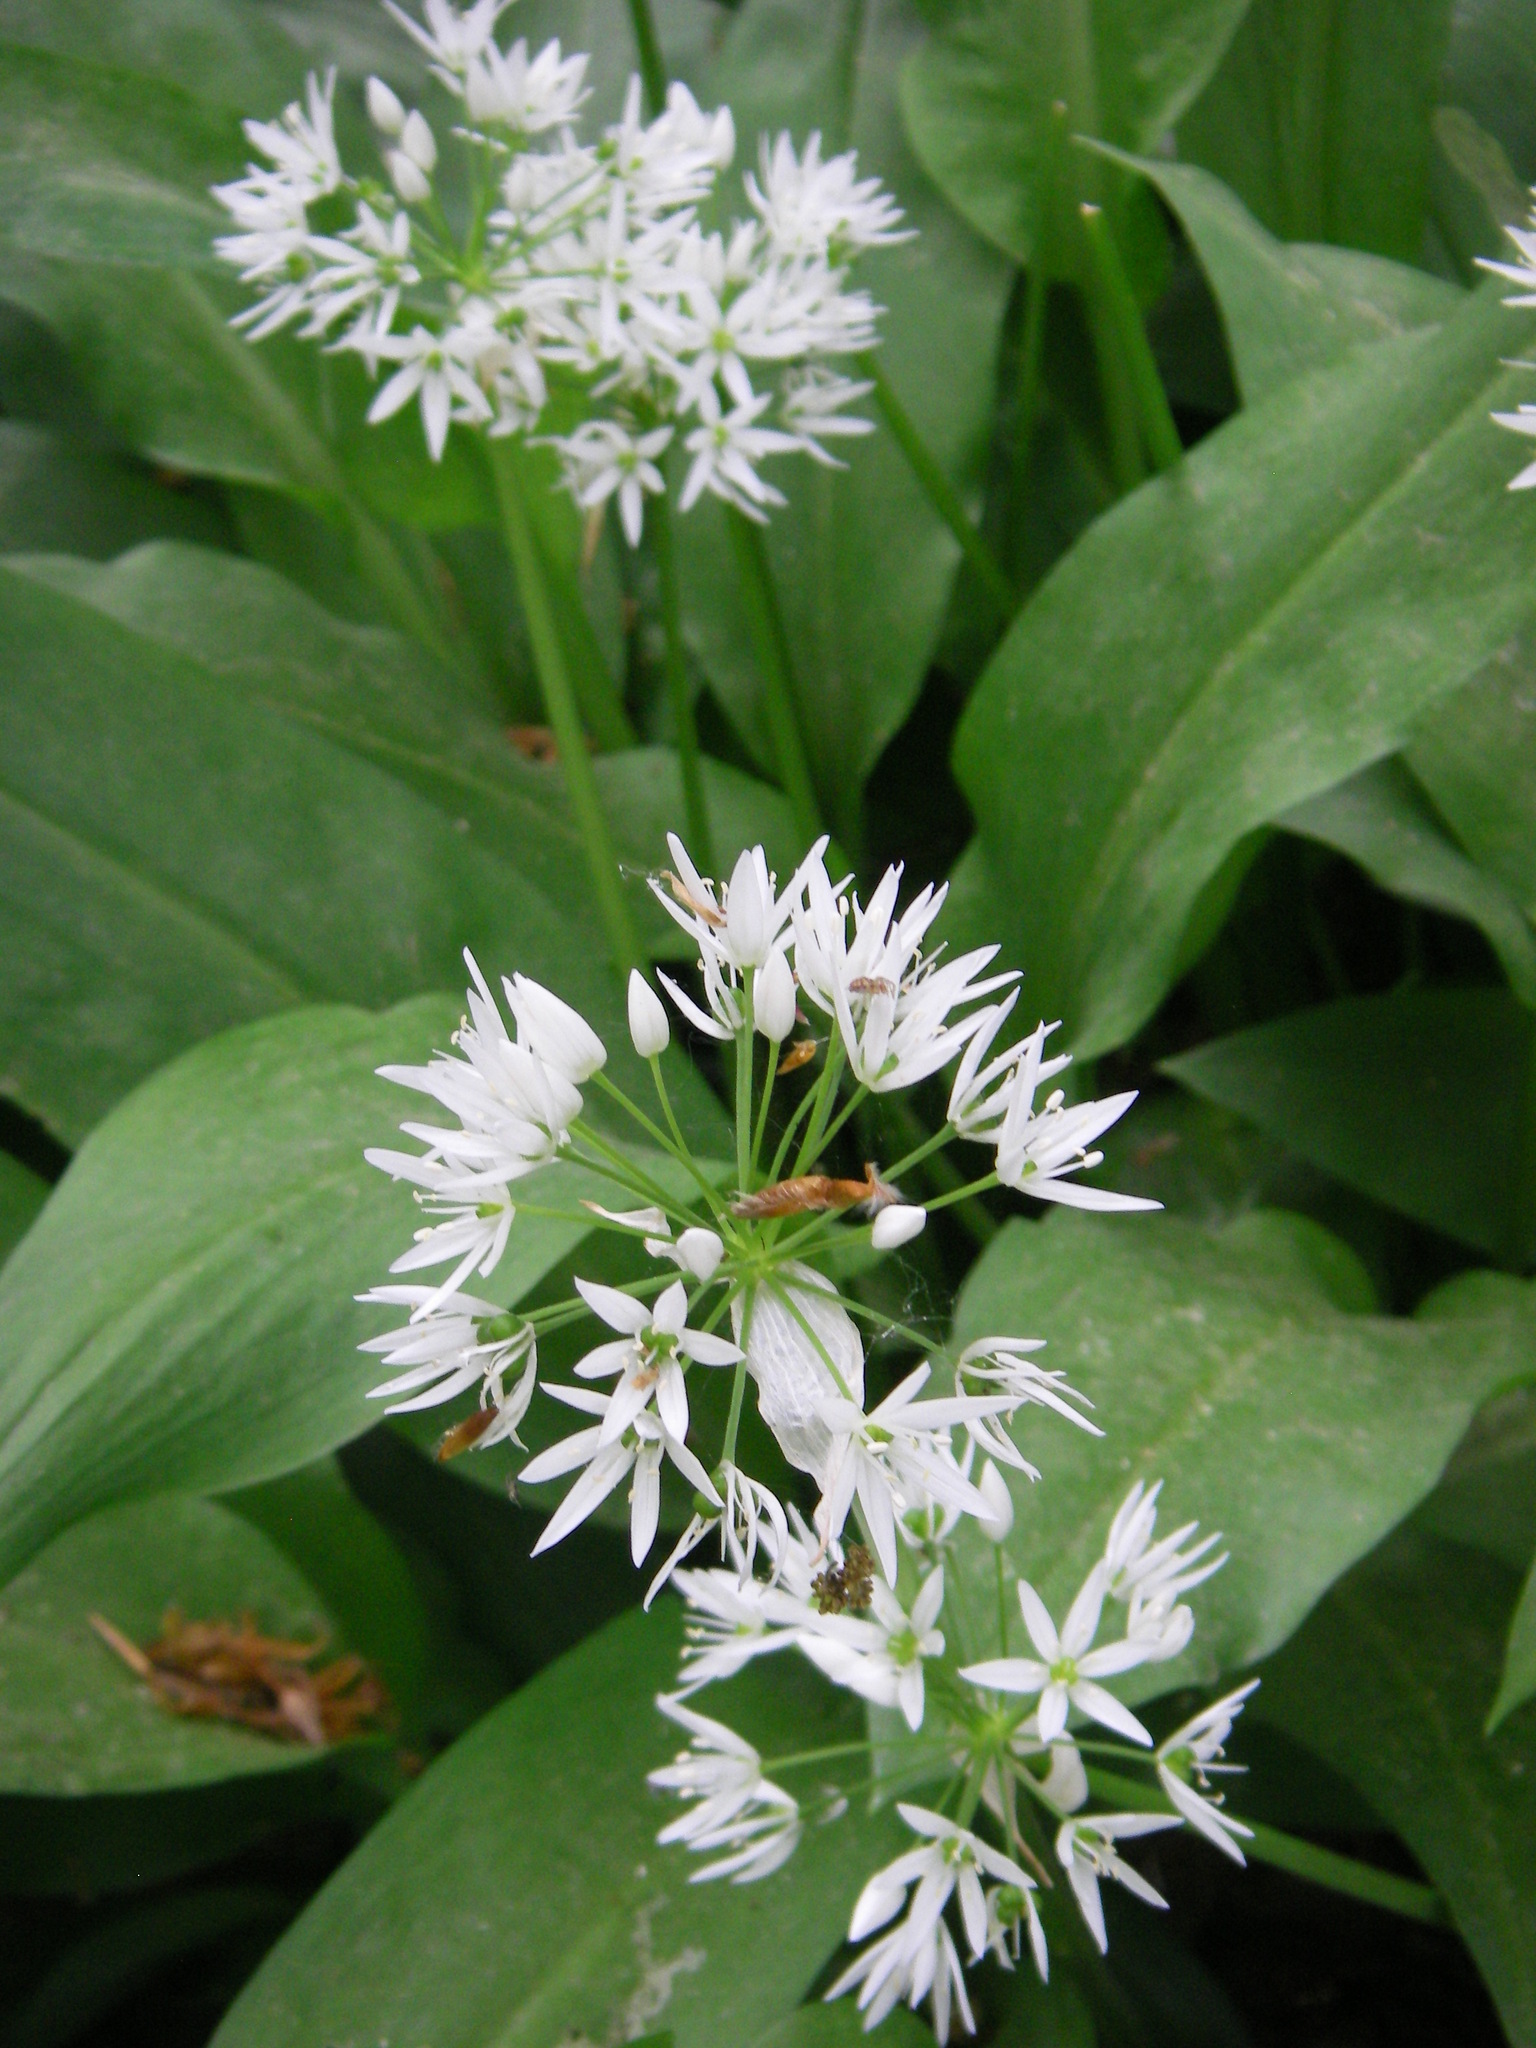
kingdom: Plantae
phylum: Tracheophyta
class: Liliopsida
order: Asparagales
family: Amaryllidaceae
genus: Allium
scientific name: Allium ursinum
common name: Ramsons
